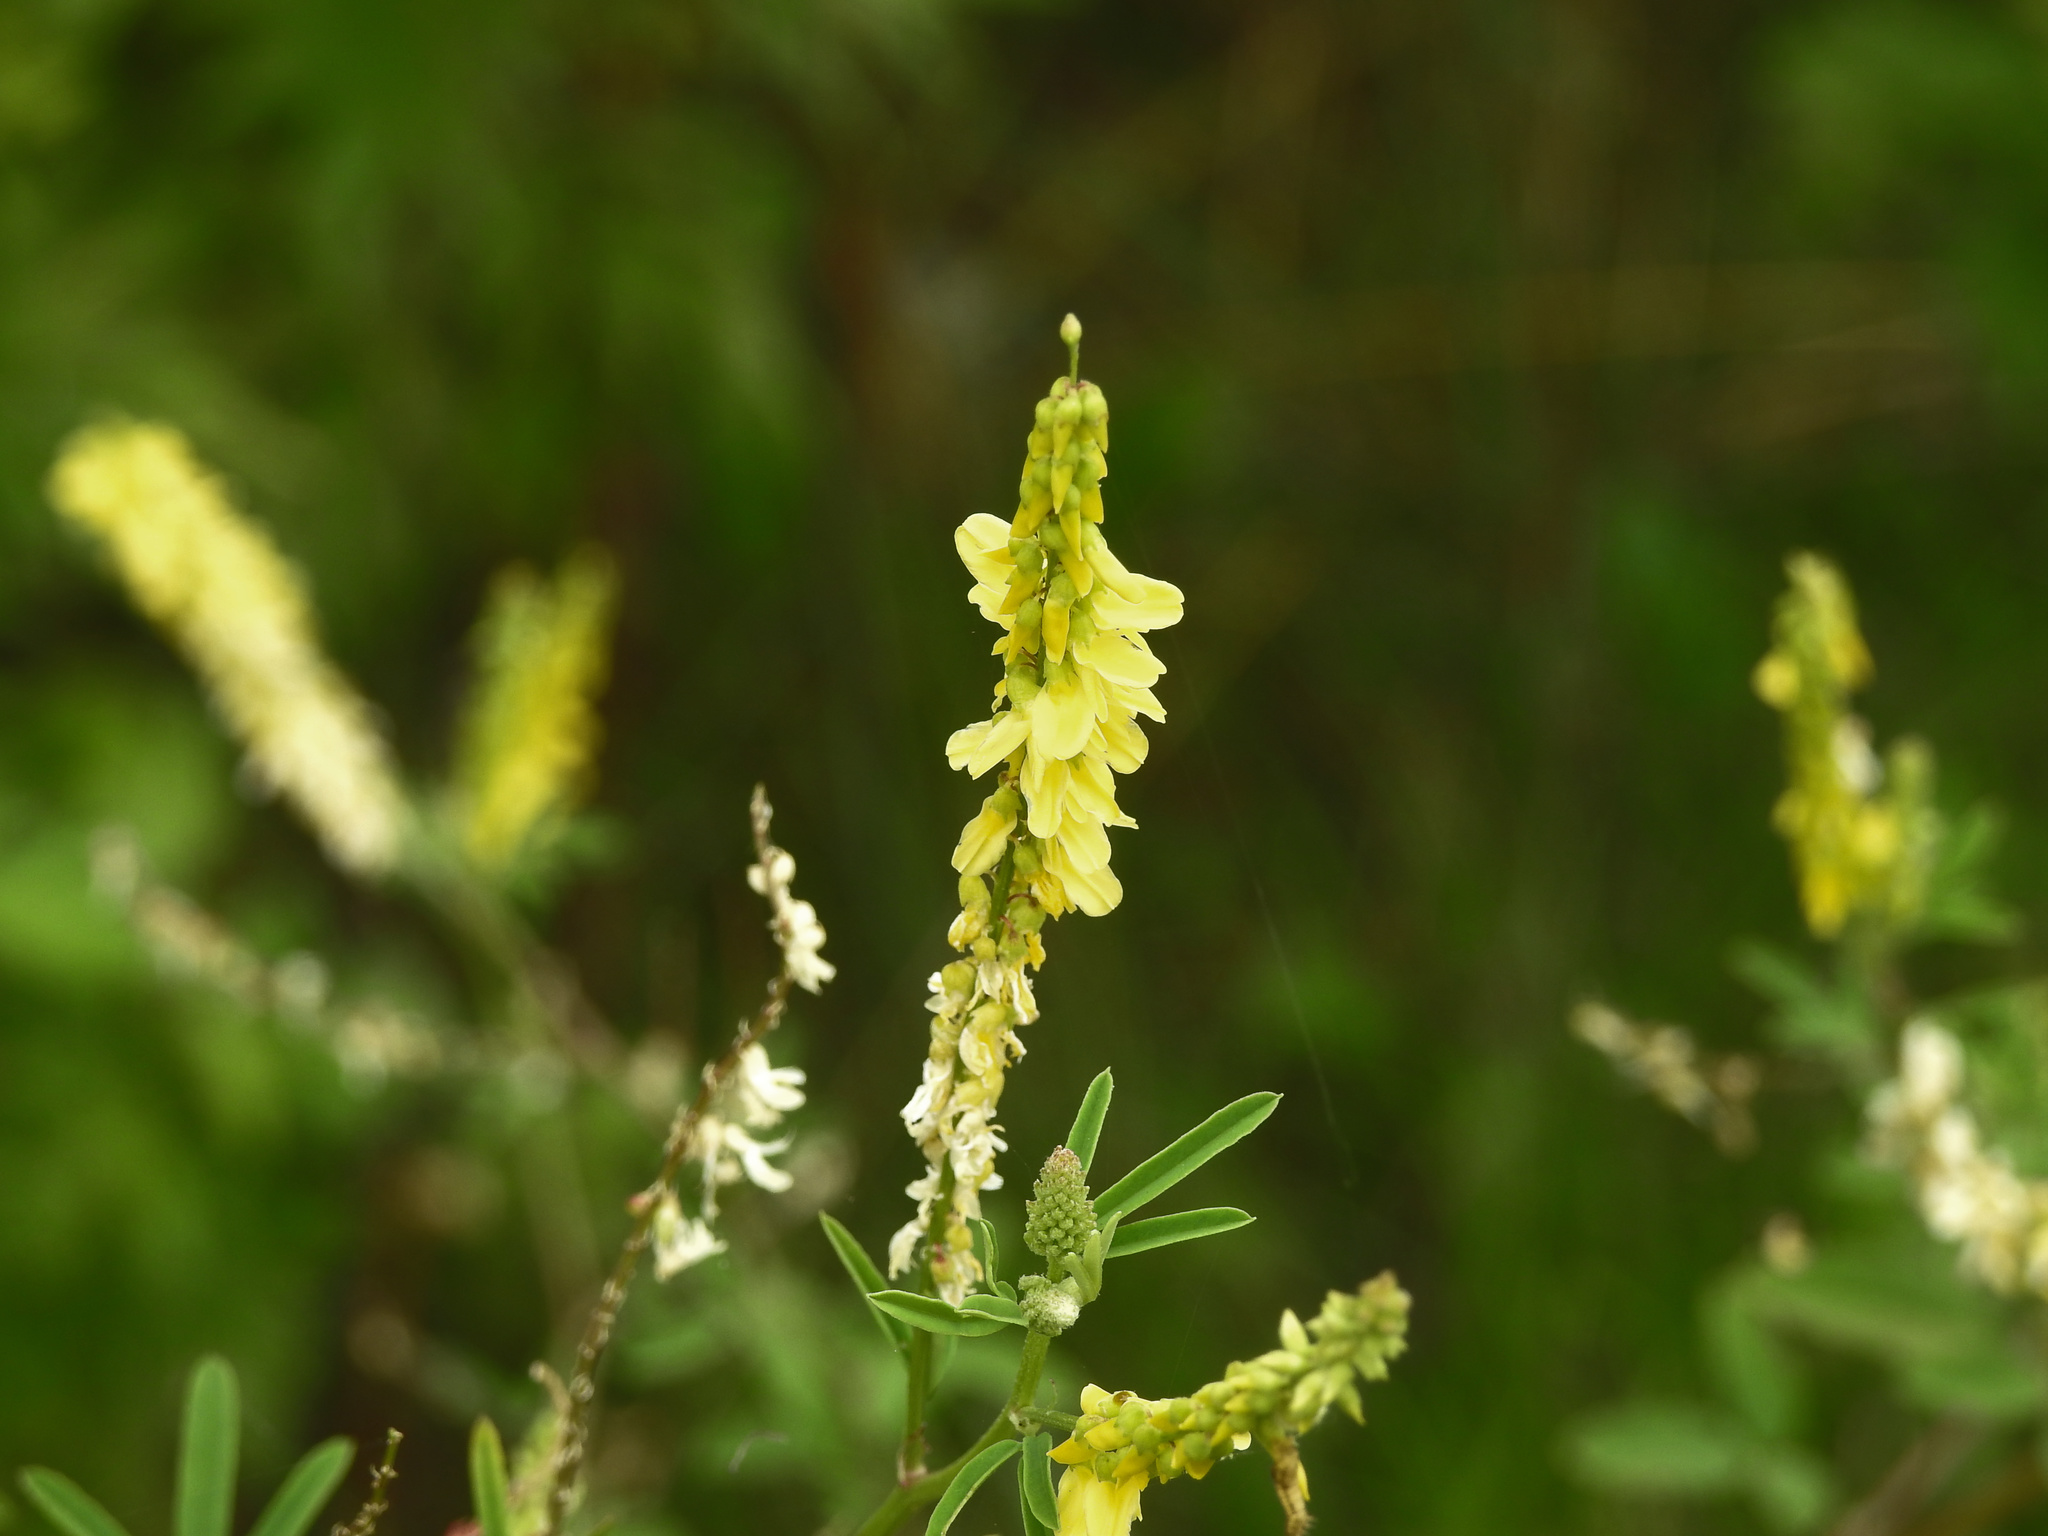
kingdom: Plantae
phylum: Tracheophyta
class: Magnoliopsida
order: Fabales
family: Fabaceae
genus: Melilotus
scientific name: Melilotus officinalis
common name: Sweetclover
